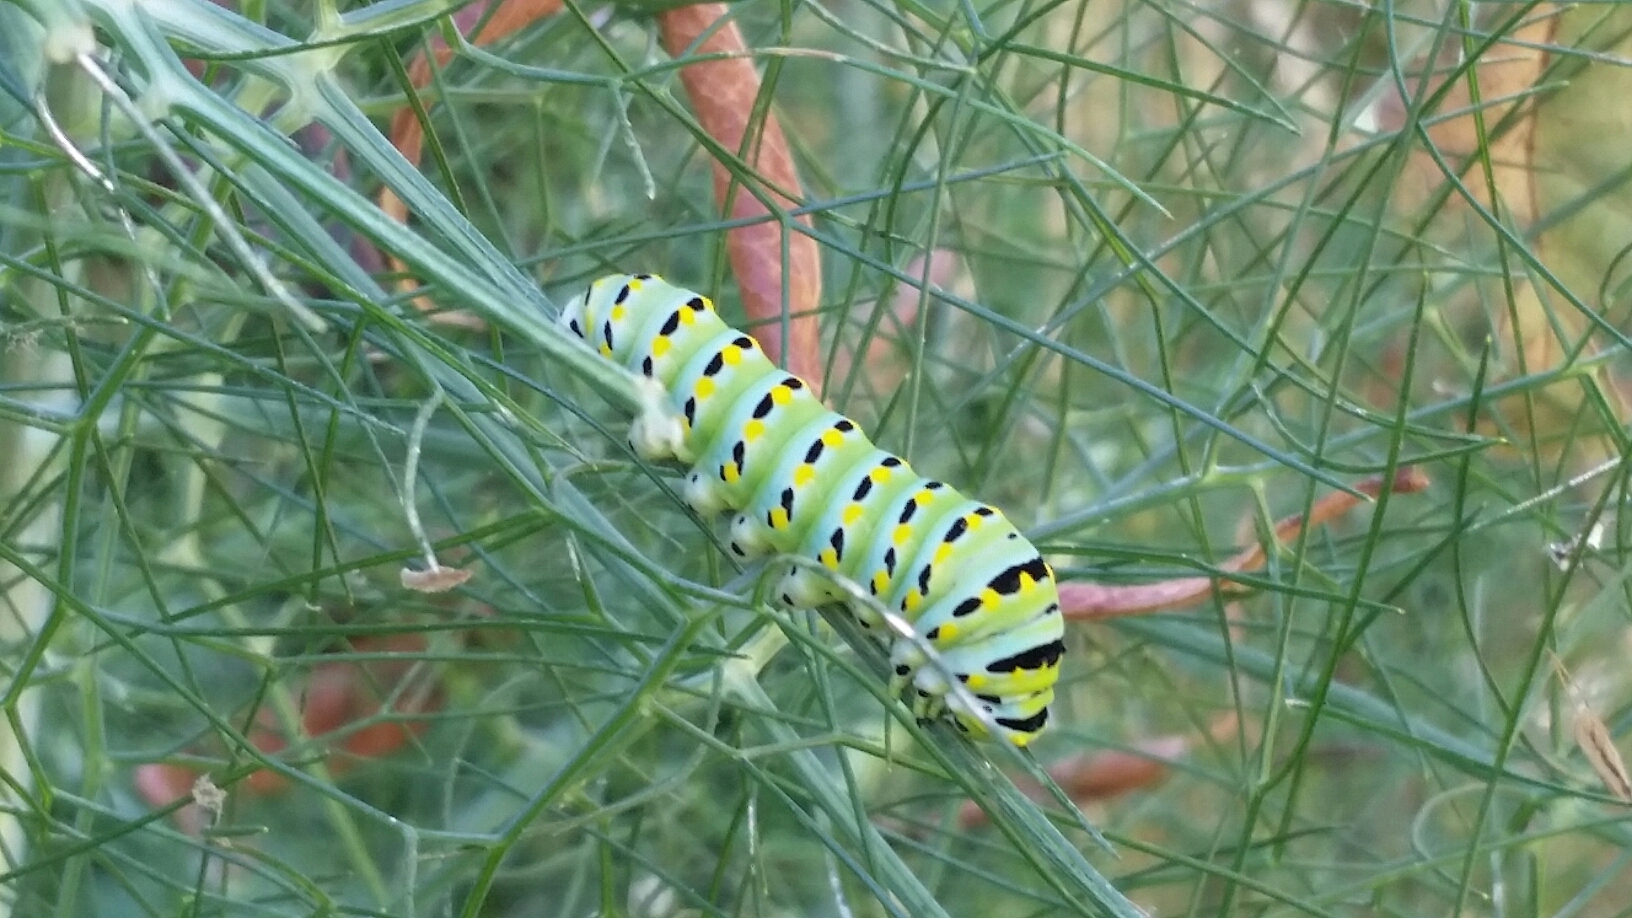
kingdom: Animalia
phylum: Arthropoda
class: Insecta
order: Lepidoptera
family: Papilionidae
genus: Papilio
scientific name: Papilio zelicaon
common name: Anise swallowtail
